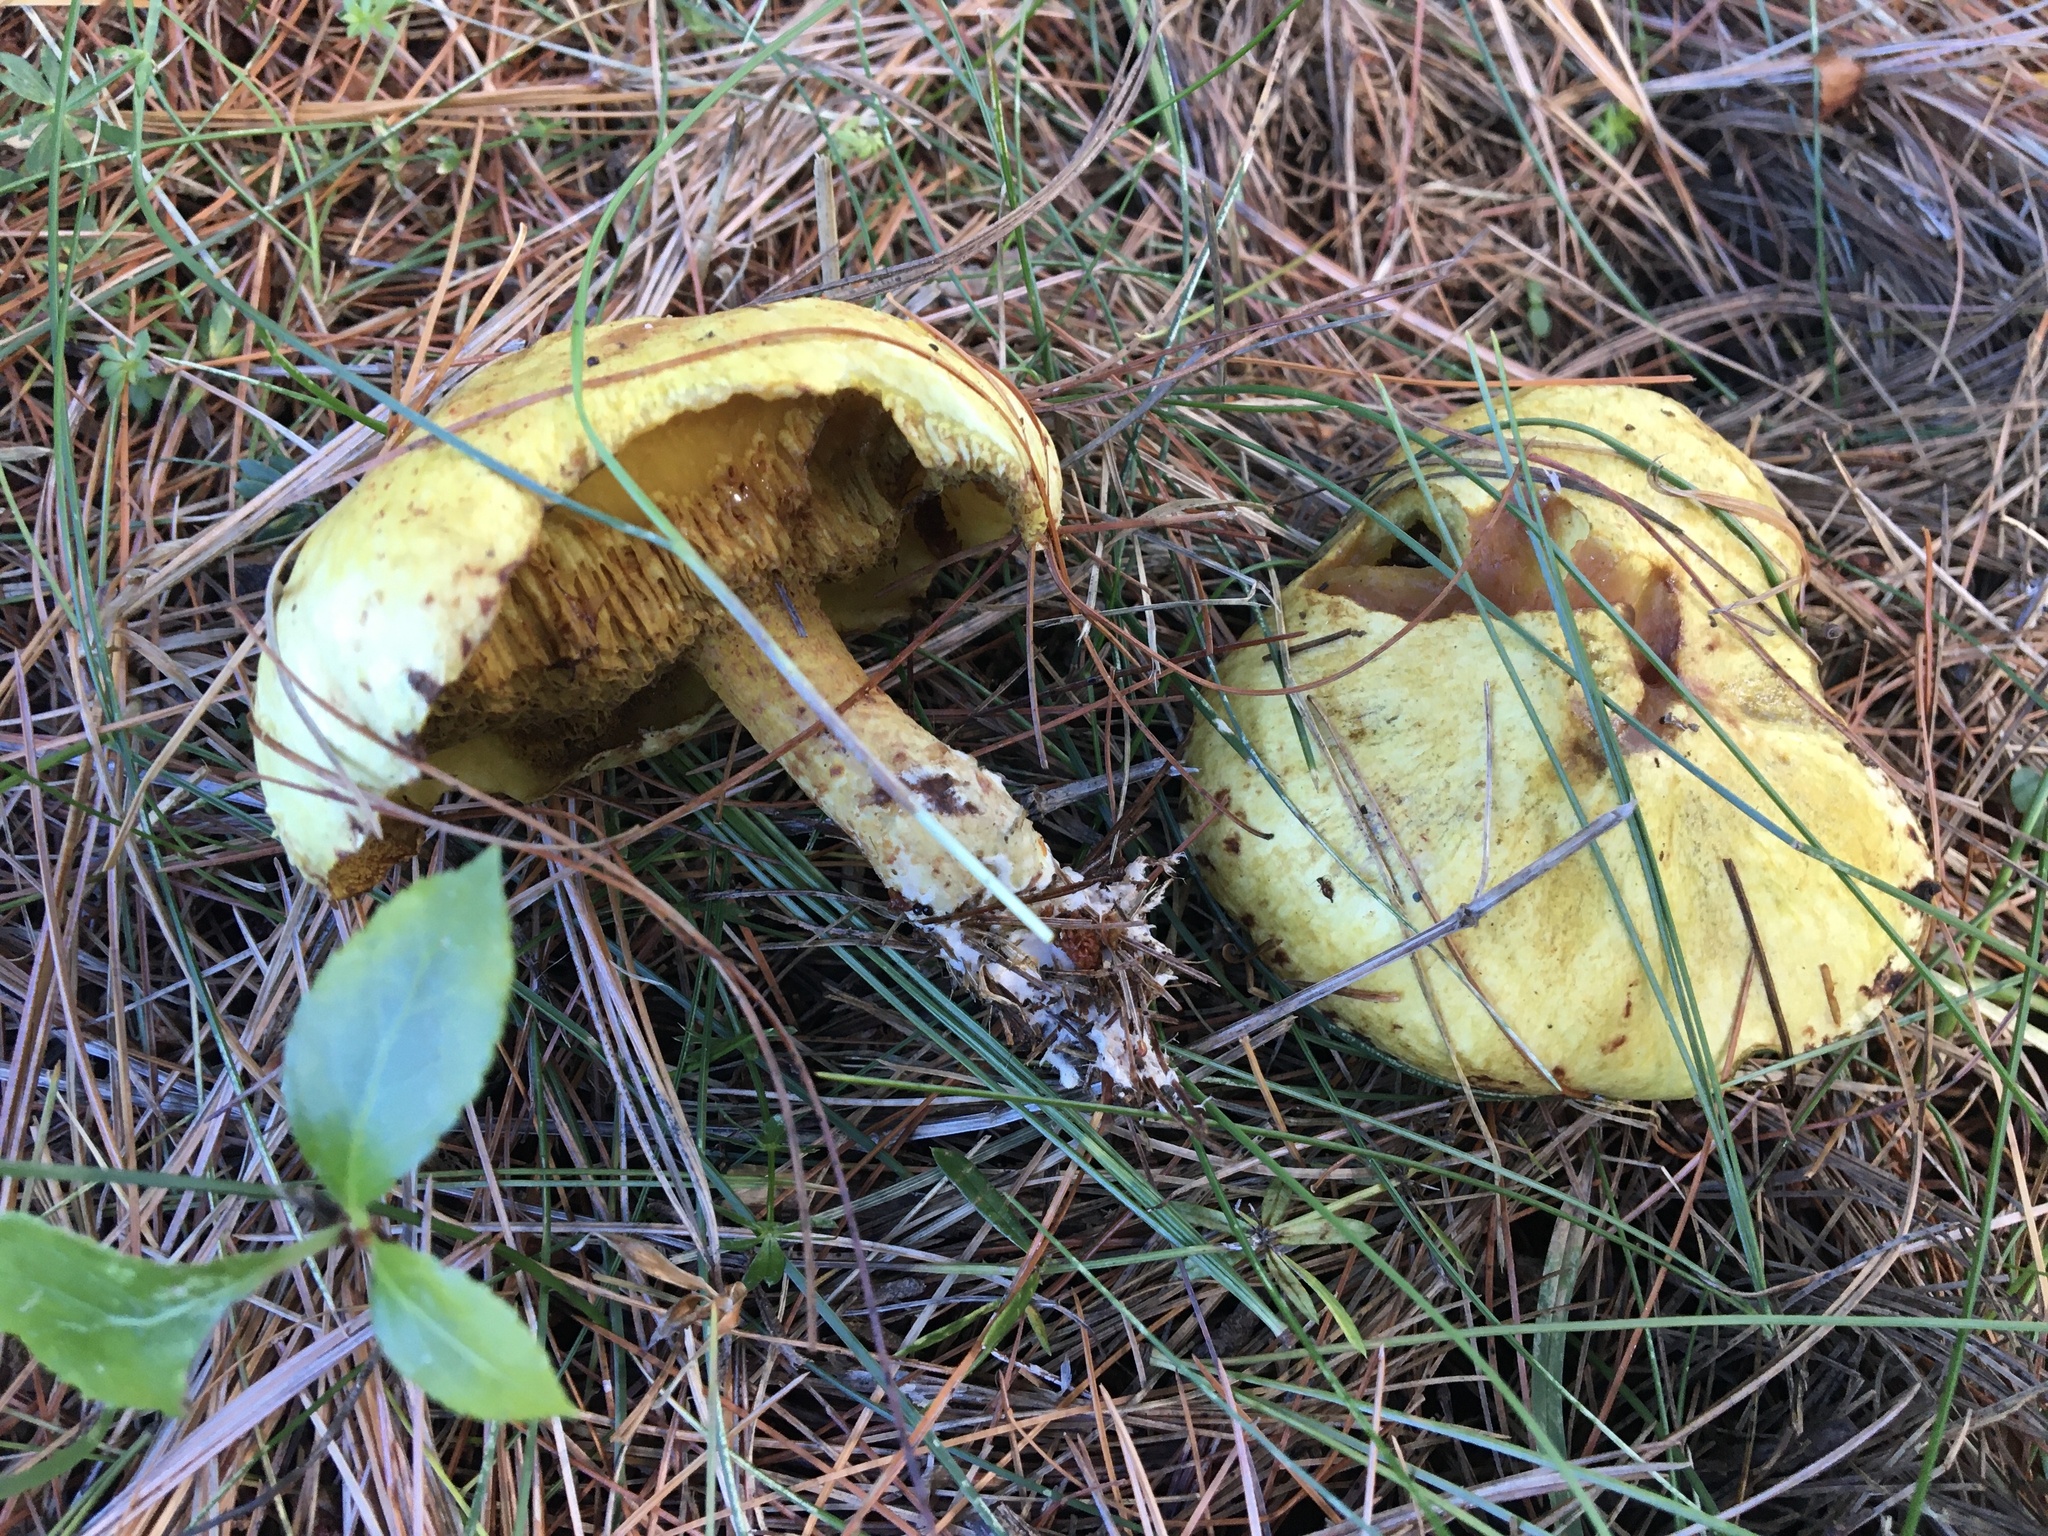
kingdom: Fungi
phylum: Basidiomycota
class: Agaricomycetes
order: Boletales
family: Suillaceae
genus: Suillus
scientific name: Suillus americanus
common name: Chicken fat mushroom
